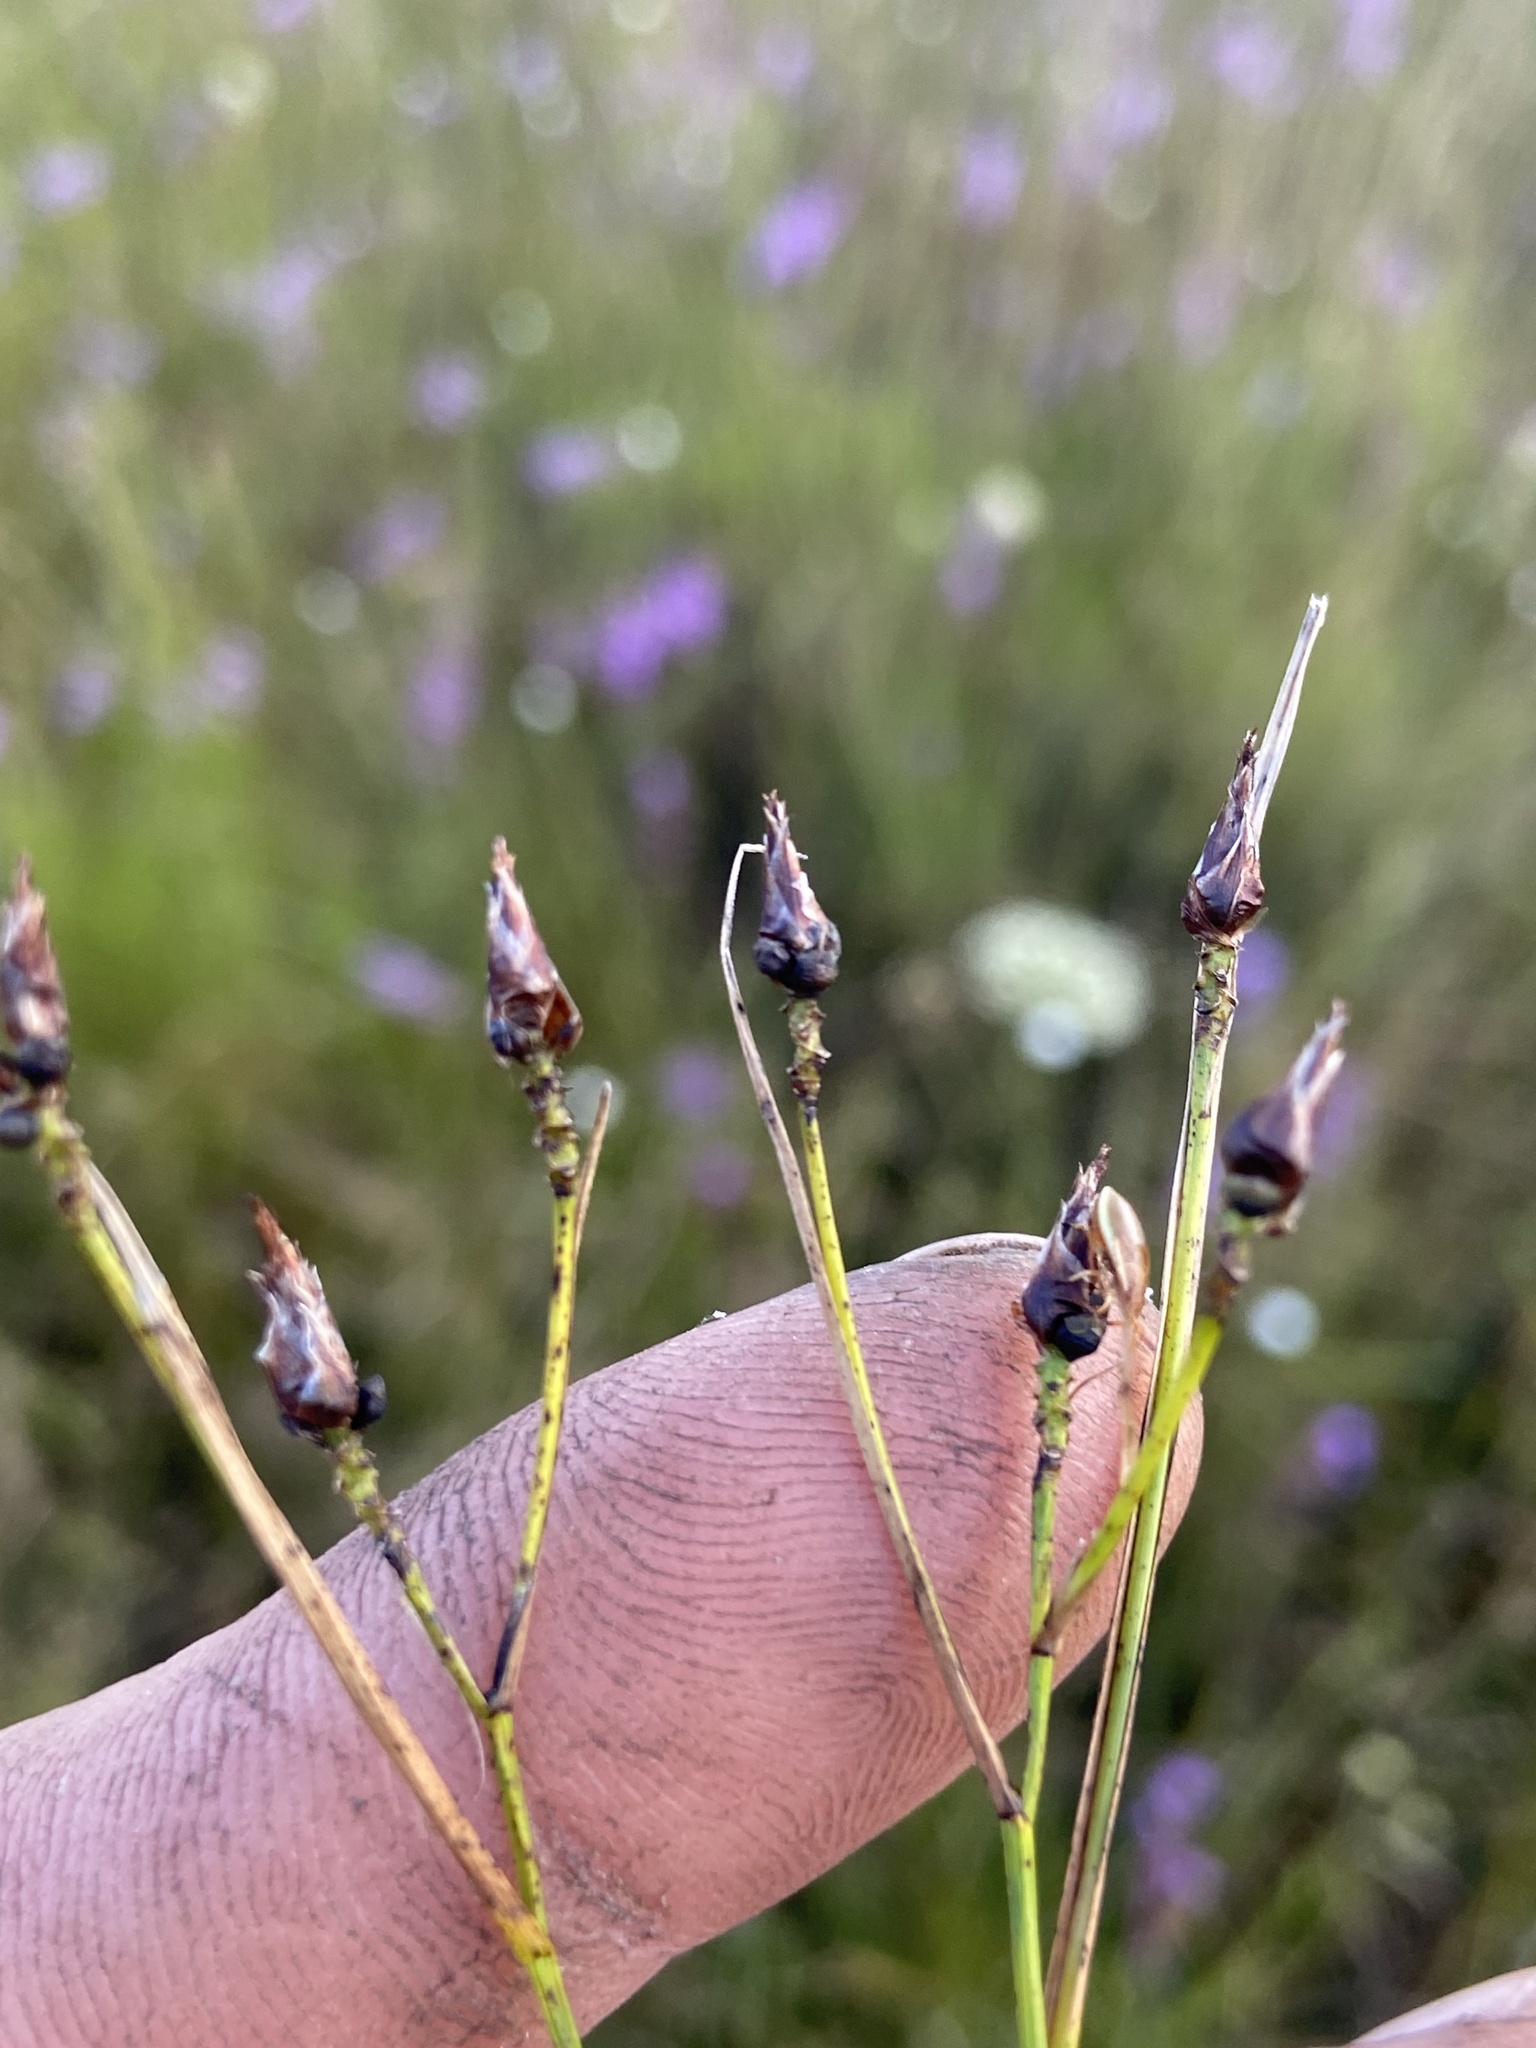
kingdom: Plantae
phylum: Tracheophyta
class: Liliopsida
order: Poales
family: Cyperaceae
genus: Rhynchospora
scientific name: Rhynchospora eximia
